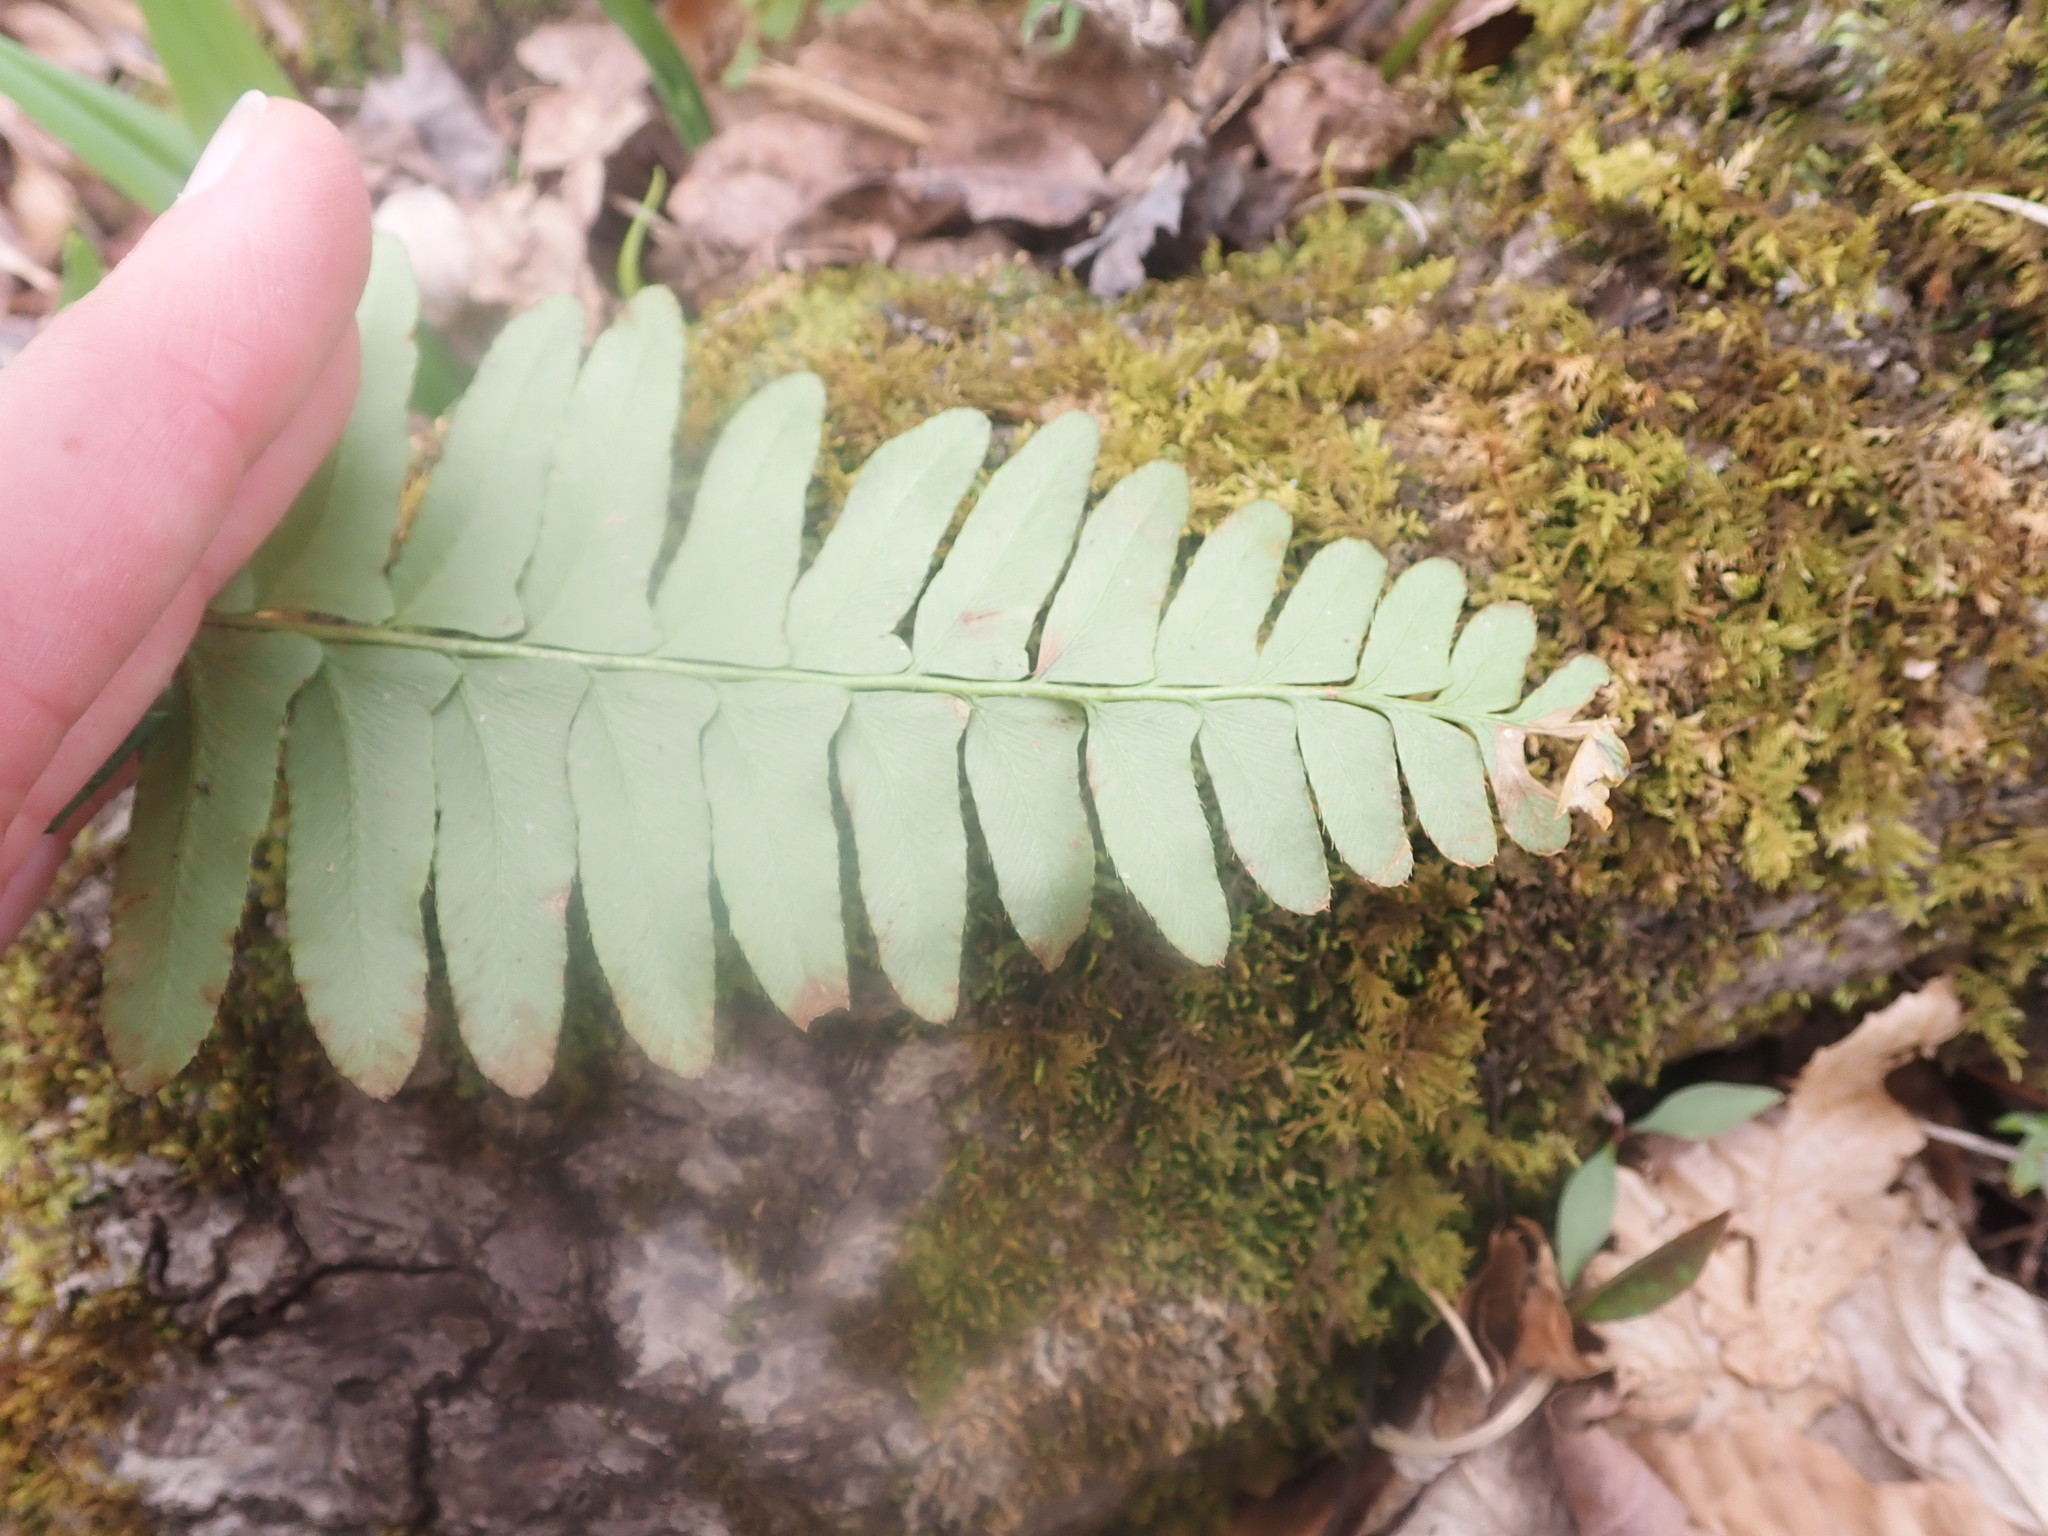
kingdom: Plantae
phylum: Tracheophyta
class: Polypodiopsida
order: Polypodiales
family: Dryopteridaceae
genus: Polystichum
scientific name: Polystichum acrostichoides
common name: Christmas fern
